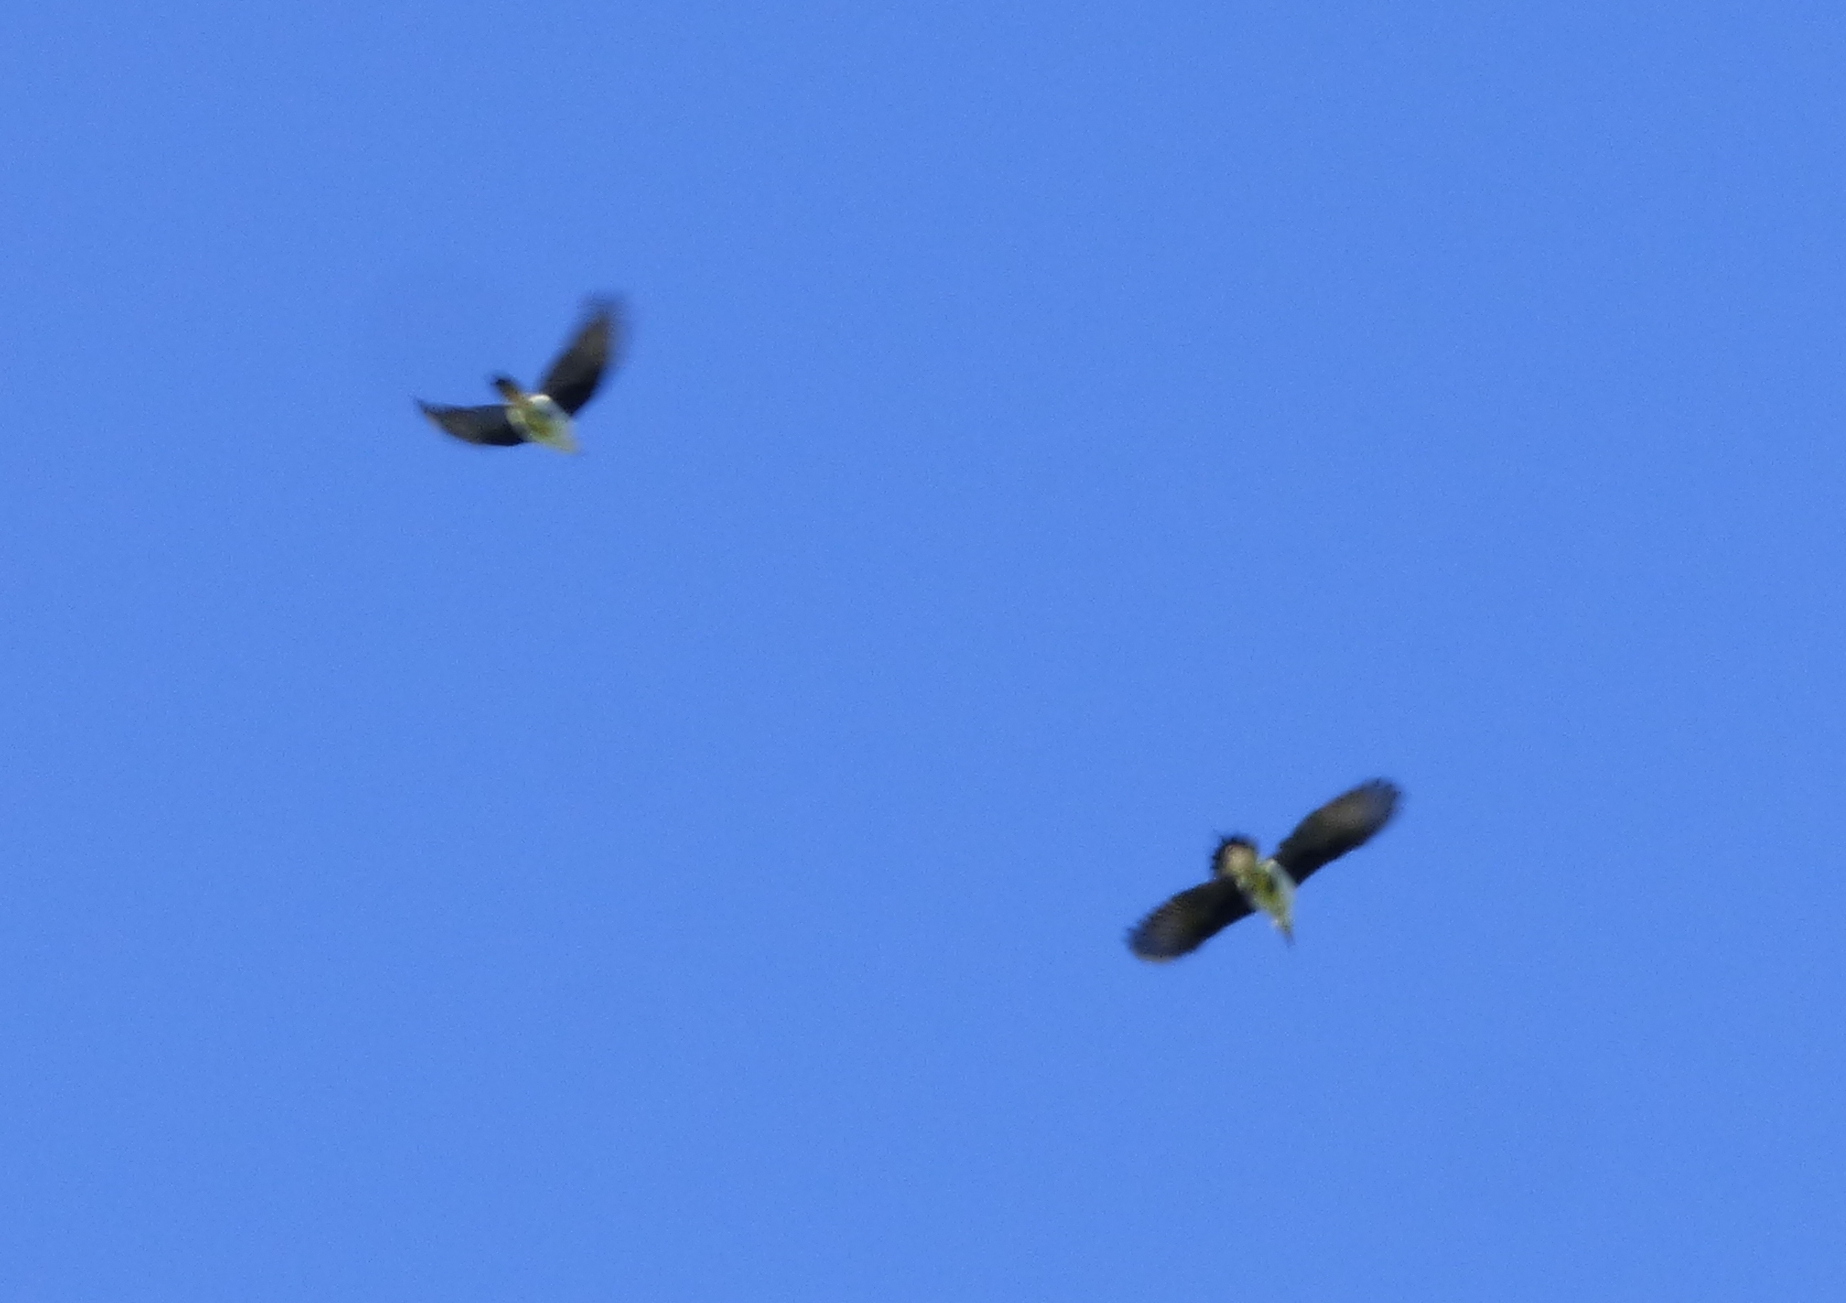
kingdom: Animalia
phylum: Chordata
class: Aves
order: Piciformes
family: Picidae
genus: Melanerpes
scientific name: Melanerpes candidus
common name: White woodpecker
